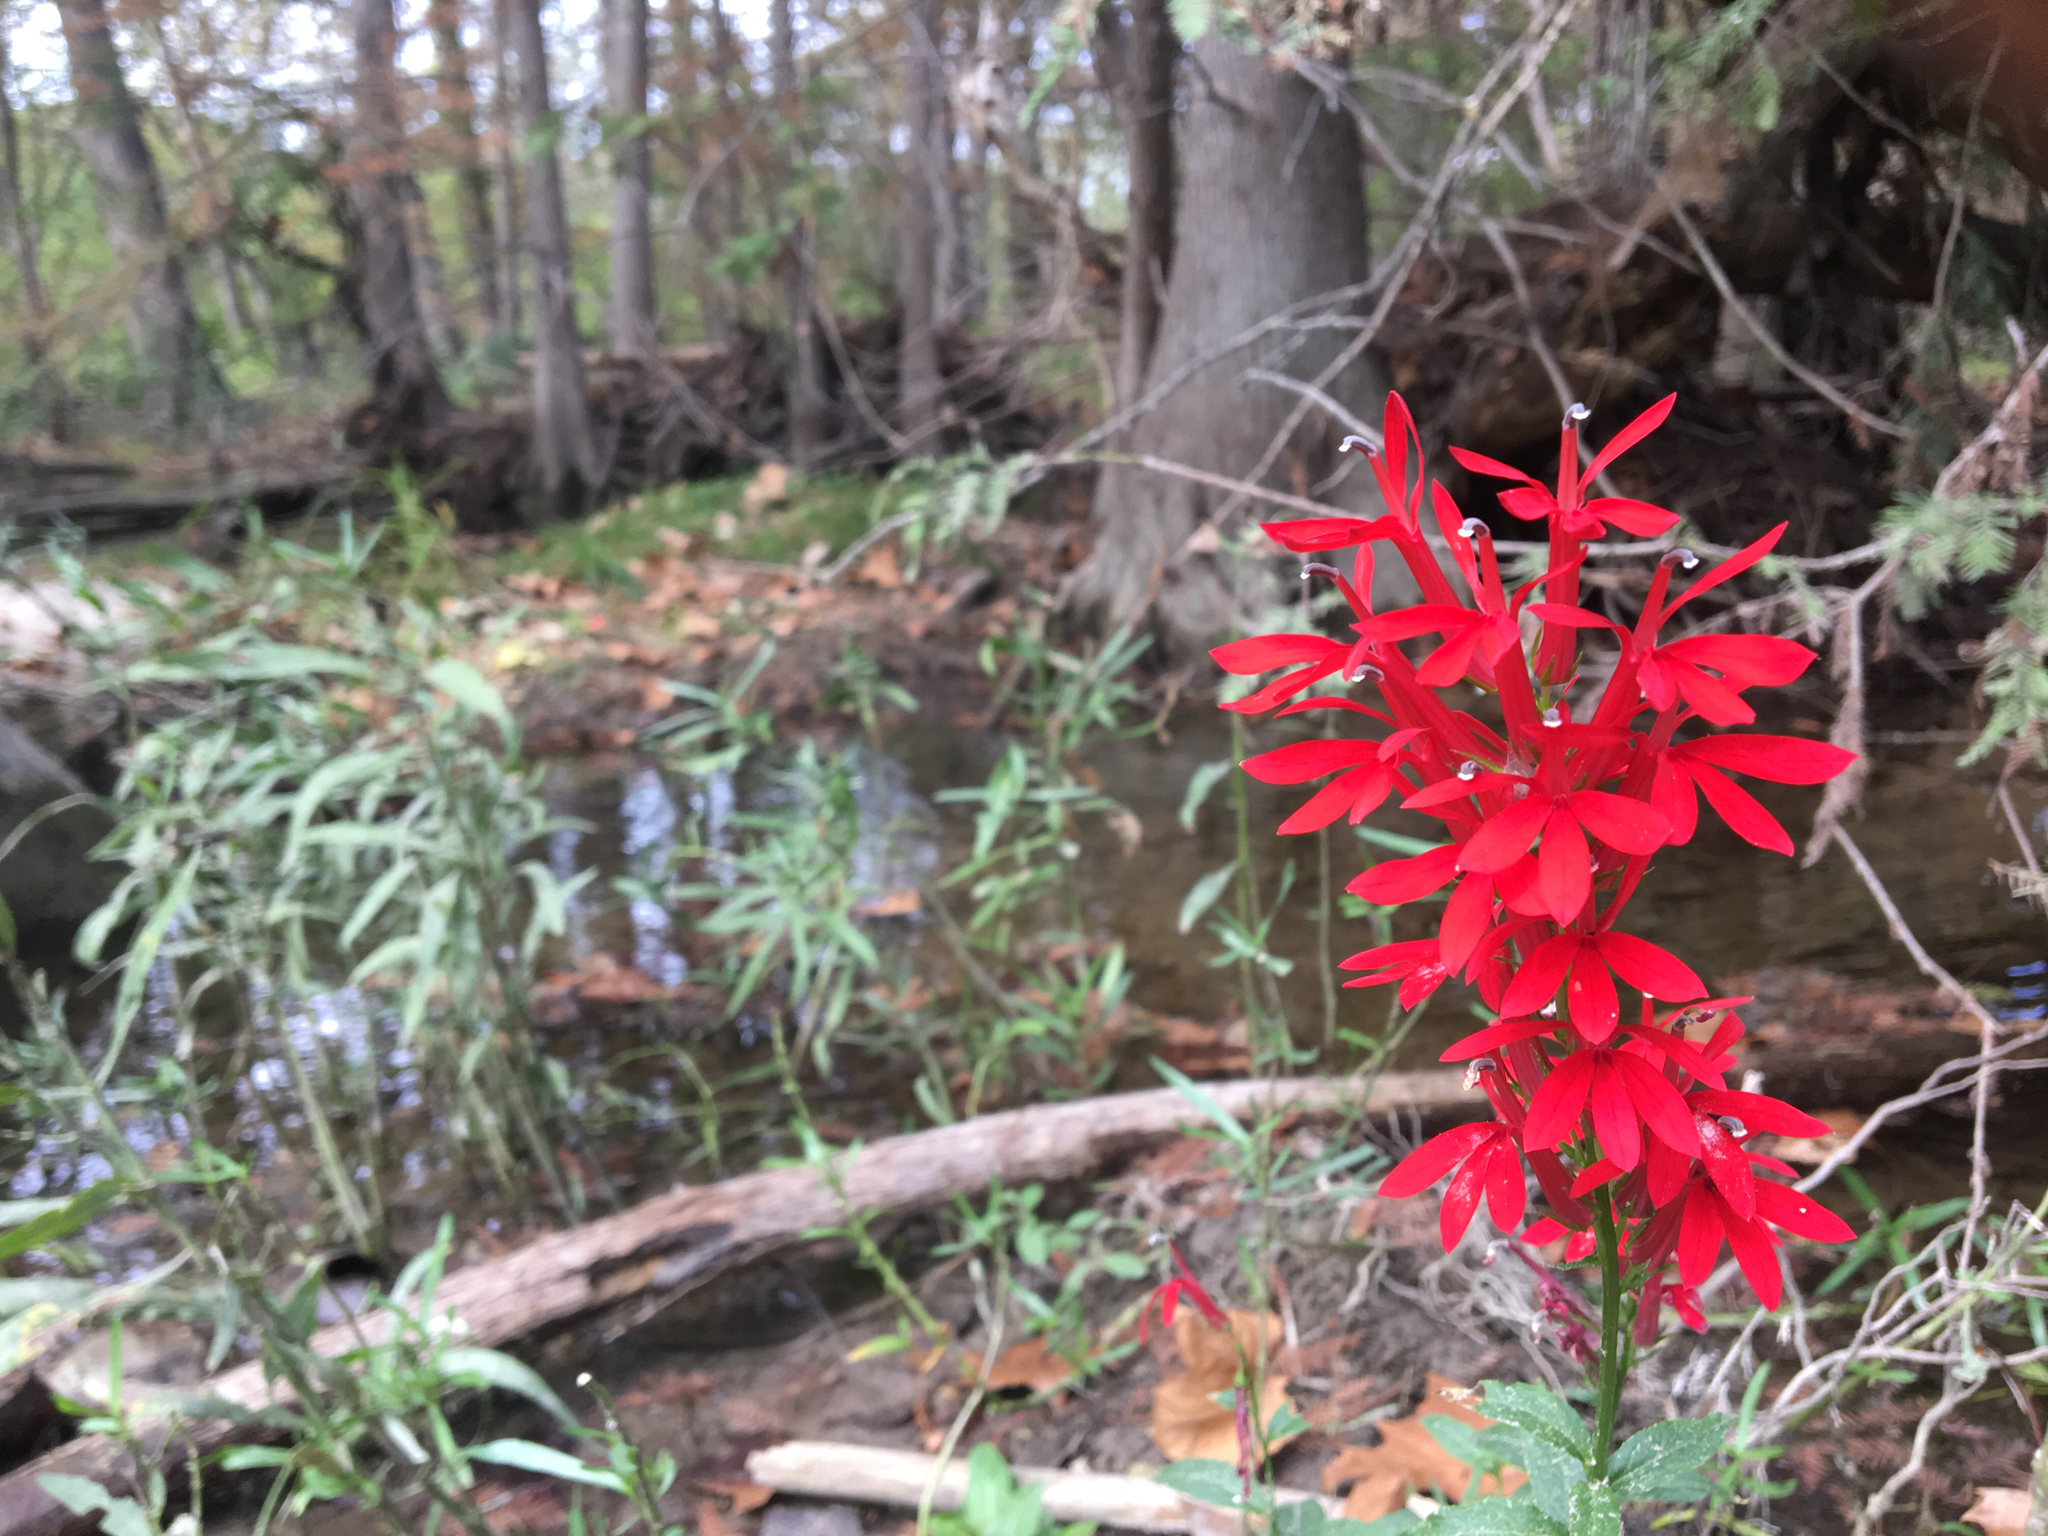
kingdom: Plantae
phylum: Tracheophyta
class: Magnoliopsida
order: Asterales
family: Campanulaceae
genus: Lobelia
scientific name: Lobelia cardinalis
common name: Cardinal flower
